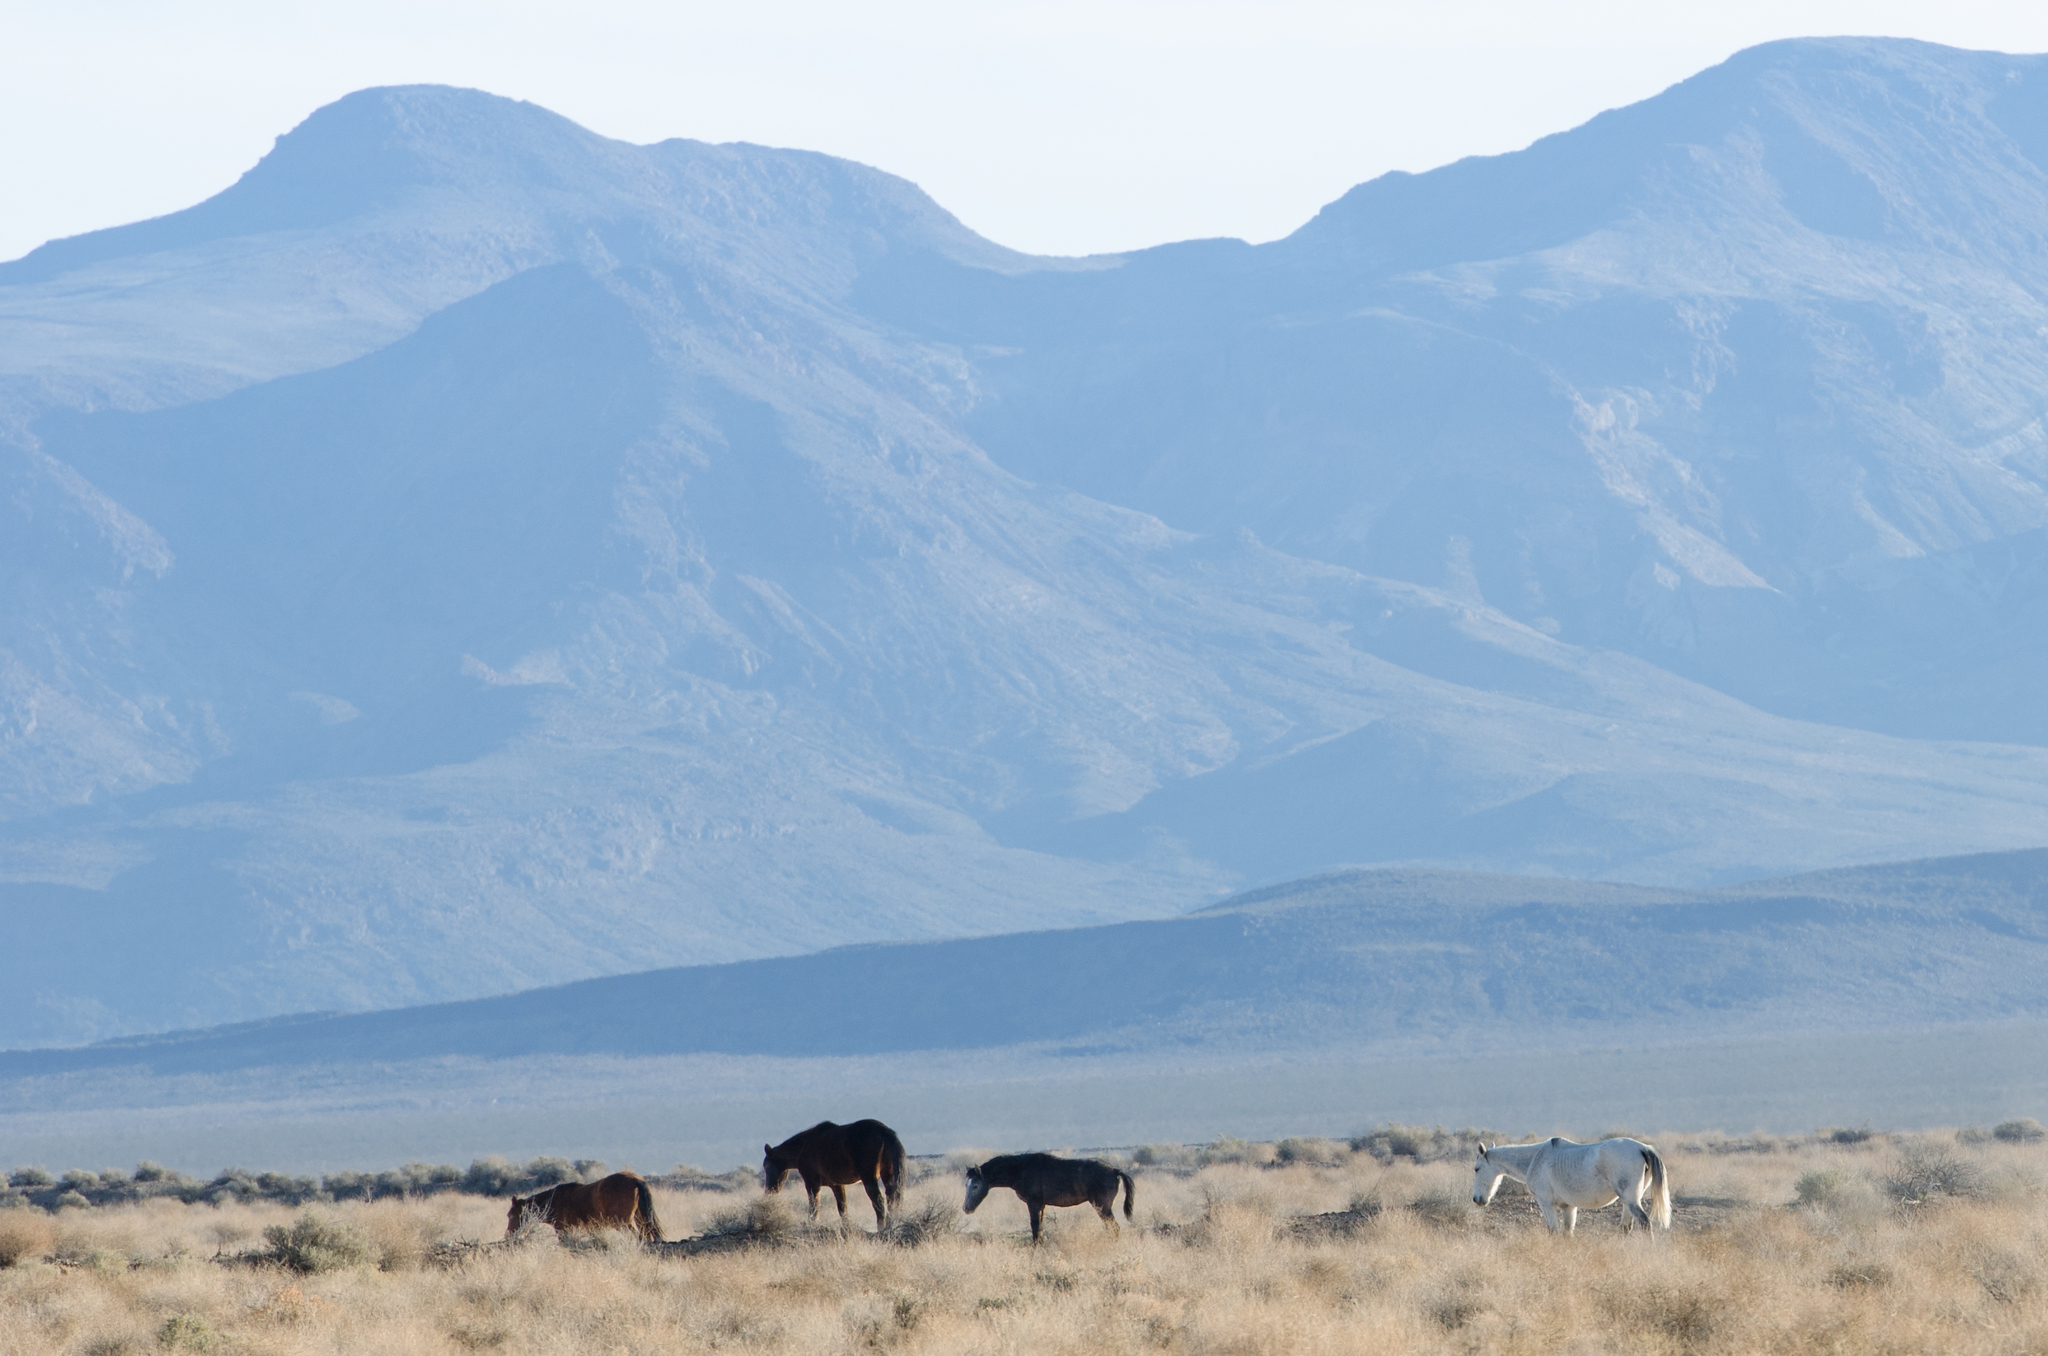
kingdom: Animalia
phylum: Chordata
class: Mammalia
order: Perissodactyla
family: Equidae
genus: Equus
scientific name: Equus caballus
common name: Horse
